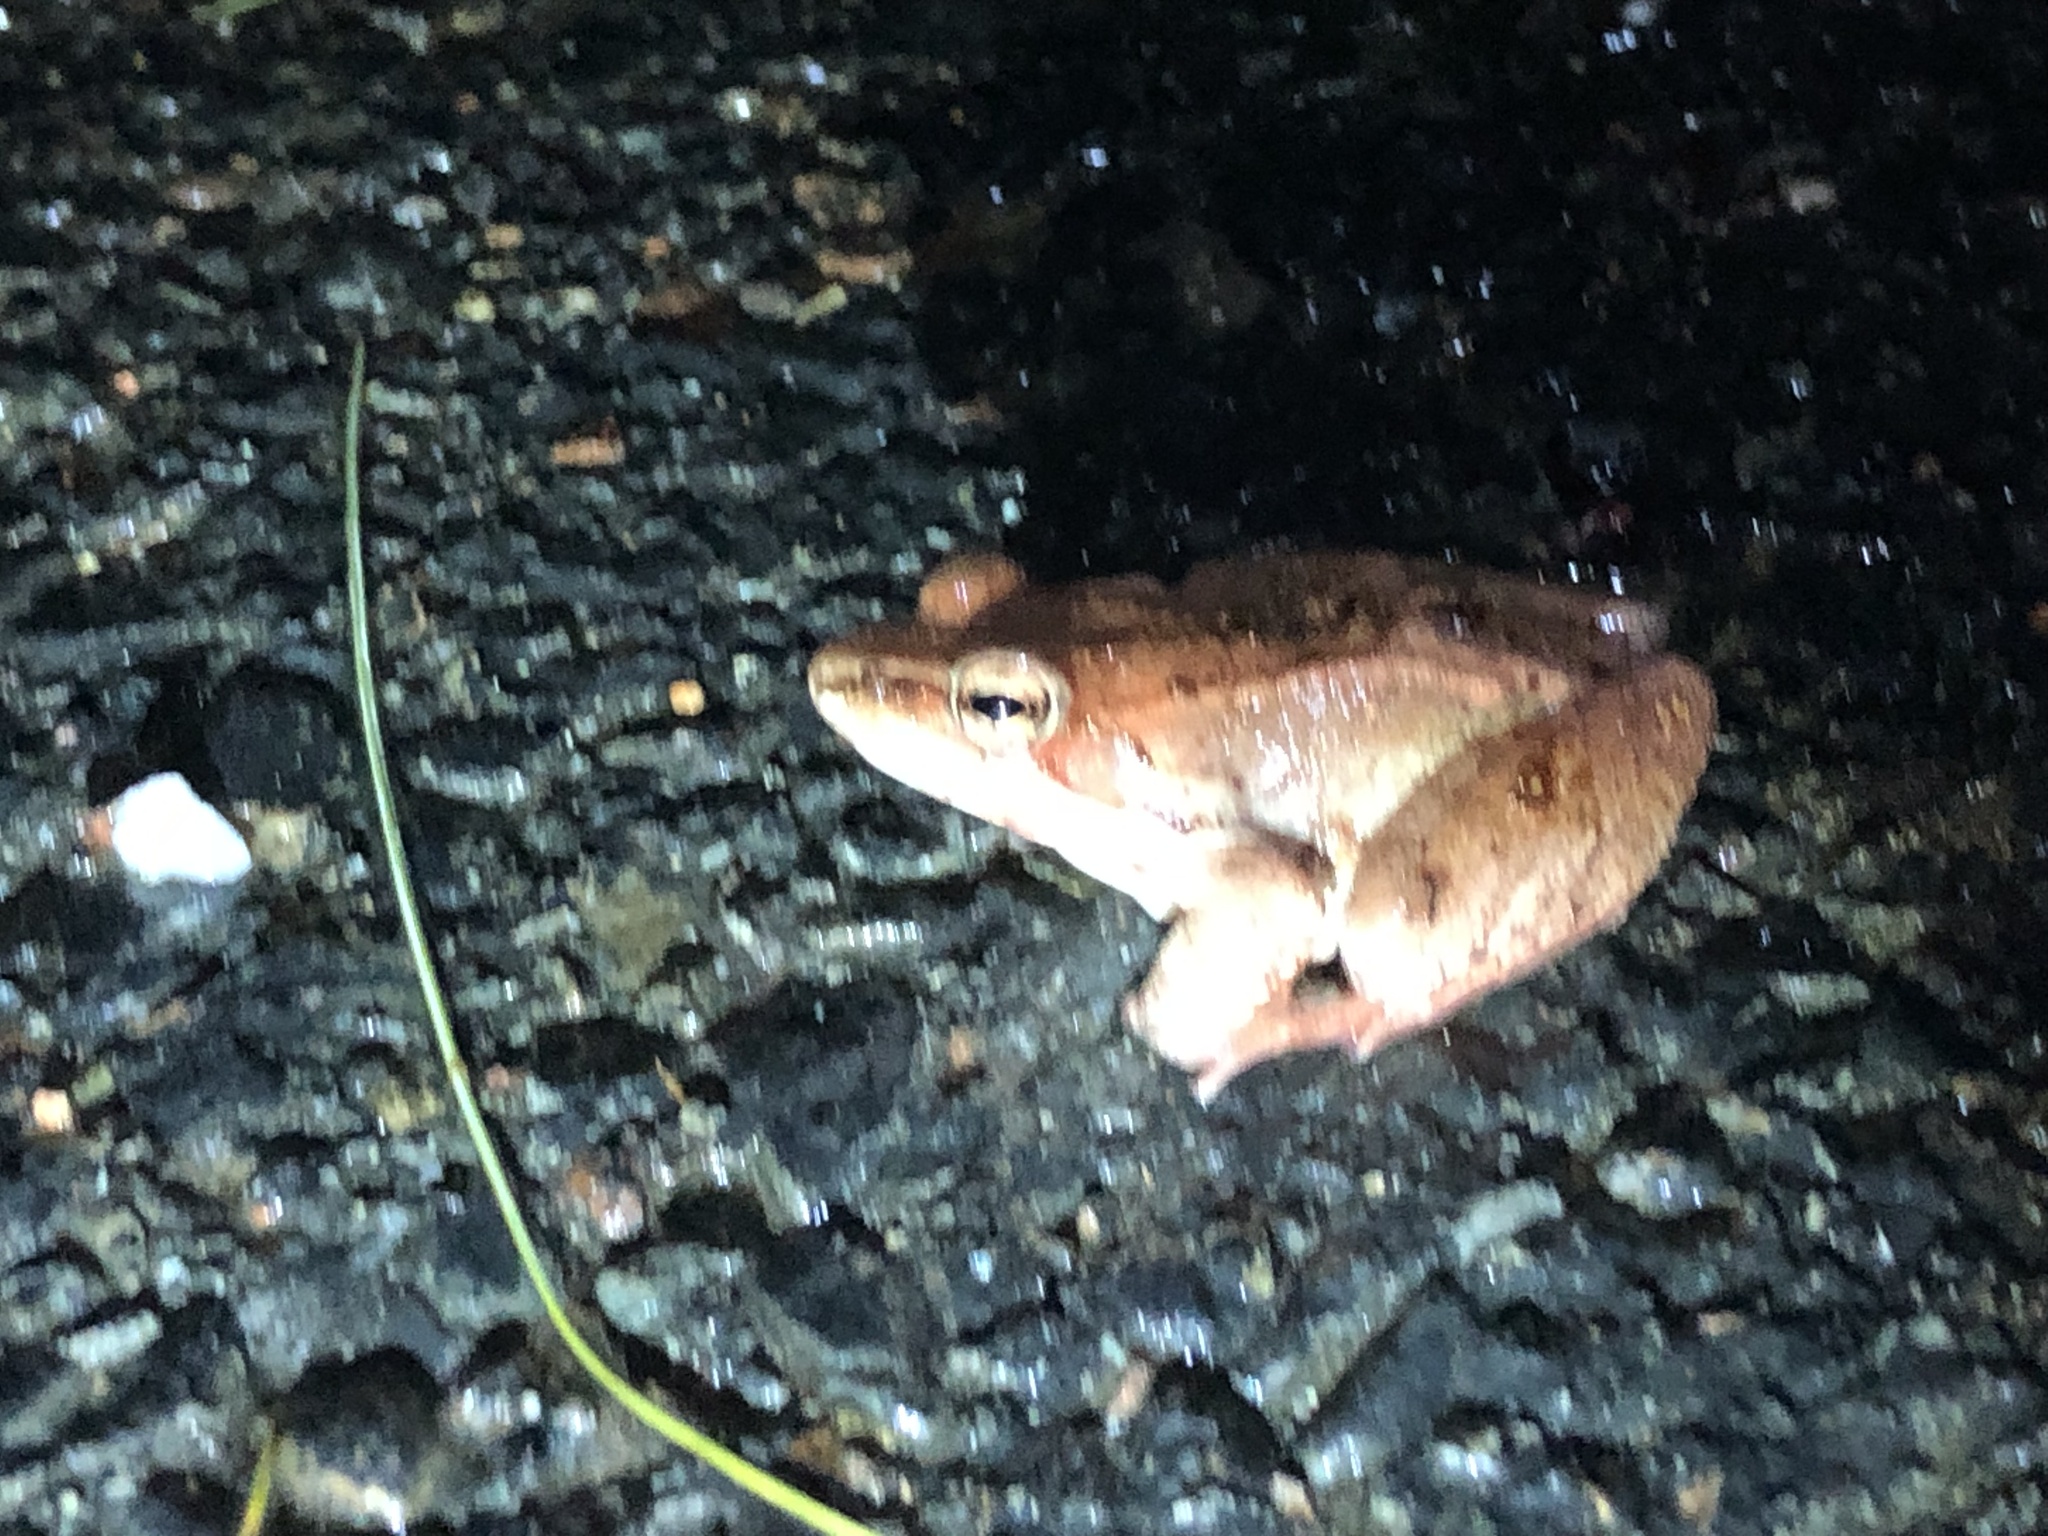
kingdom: Animalia
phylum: Chordata
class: Amphibia
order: Anura
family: Ranidae
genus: Lithobates
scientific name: Lithobates sylvaticus
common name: Wood frog
